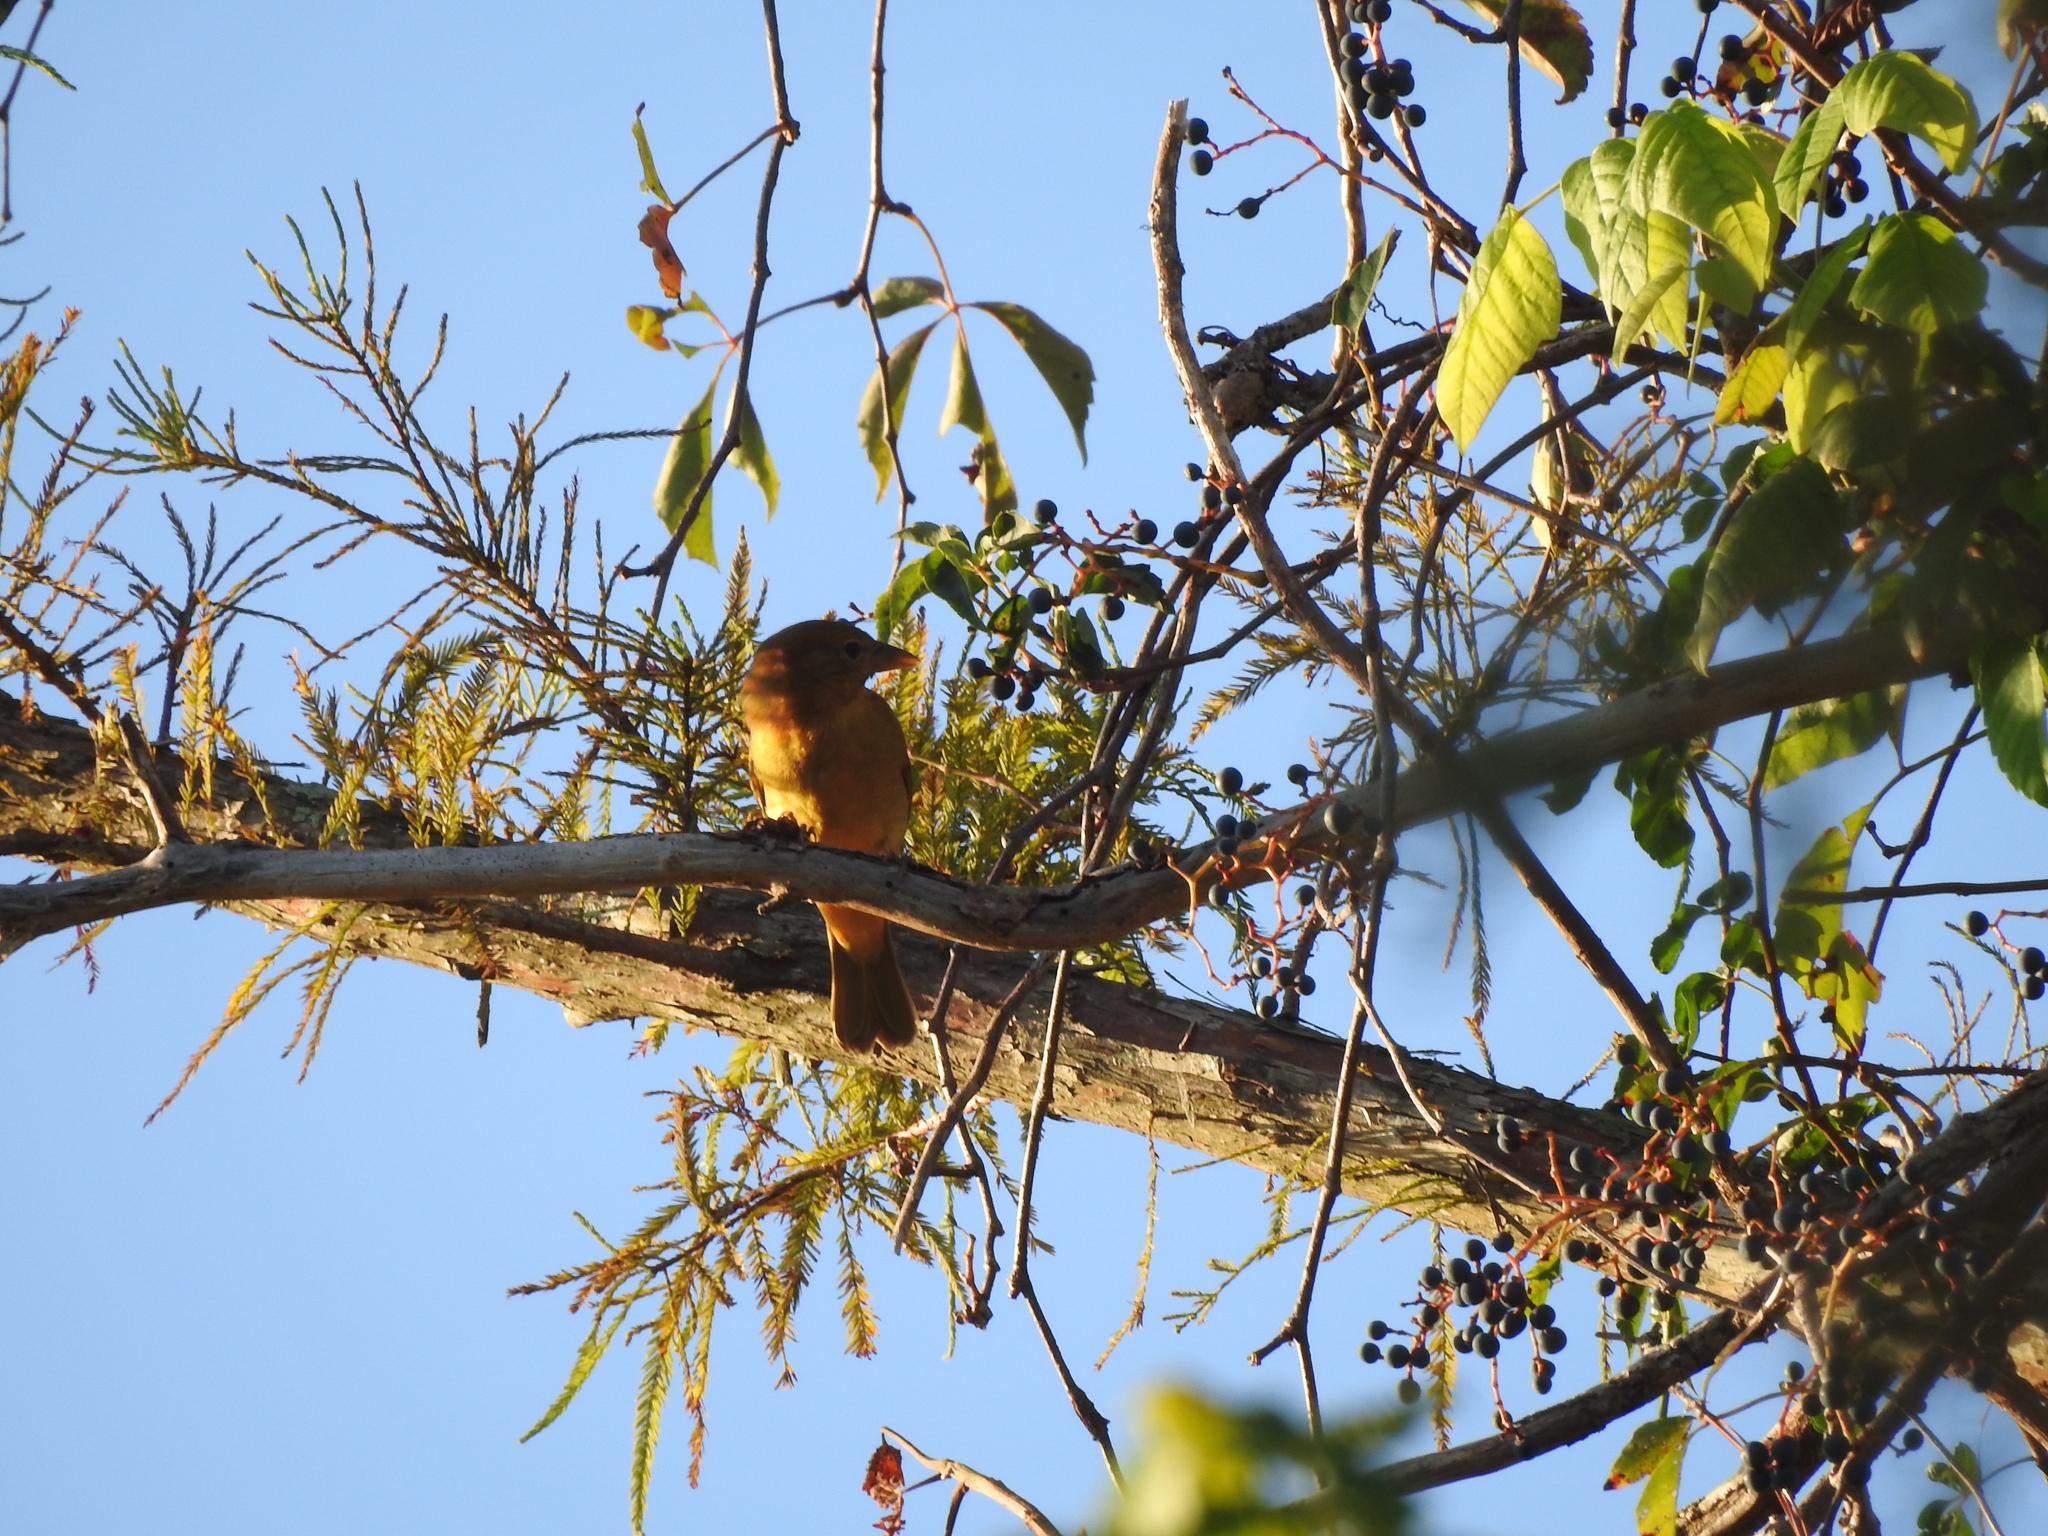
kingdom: Animalia
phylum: Chordata
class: Aves
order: Passeriformes
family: Cardinalidae
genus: Piranga
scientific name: Piranga rubra
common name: Summer tanager
